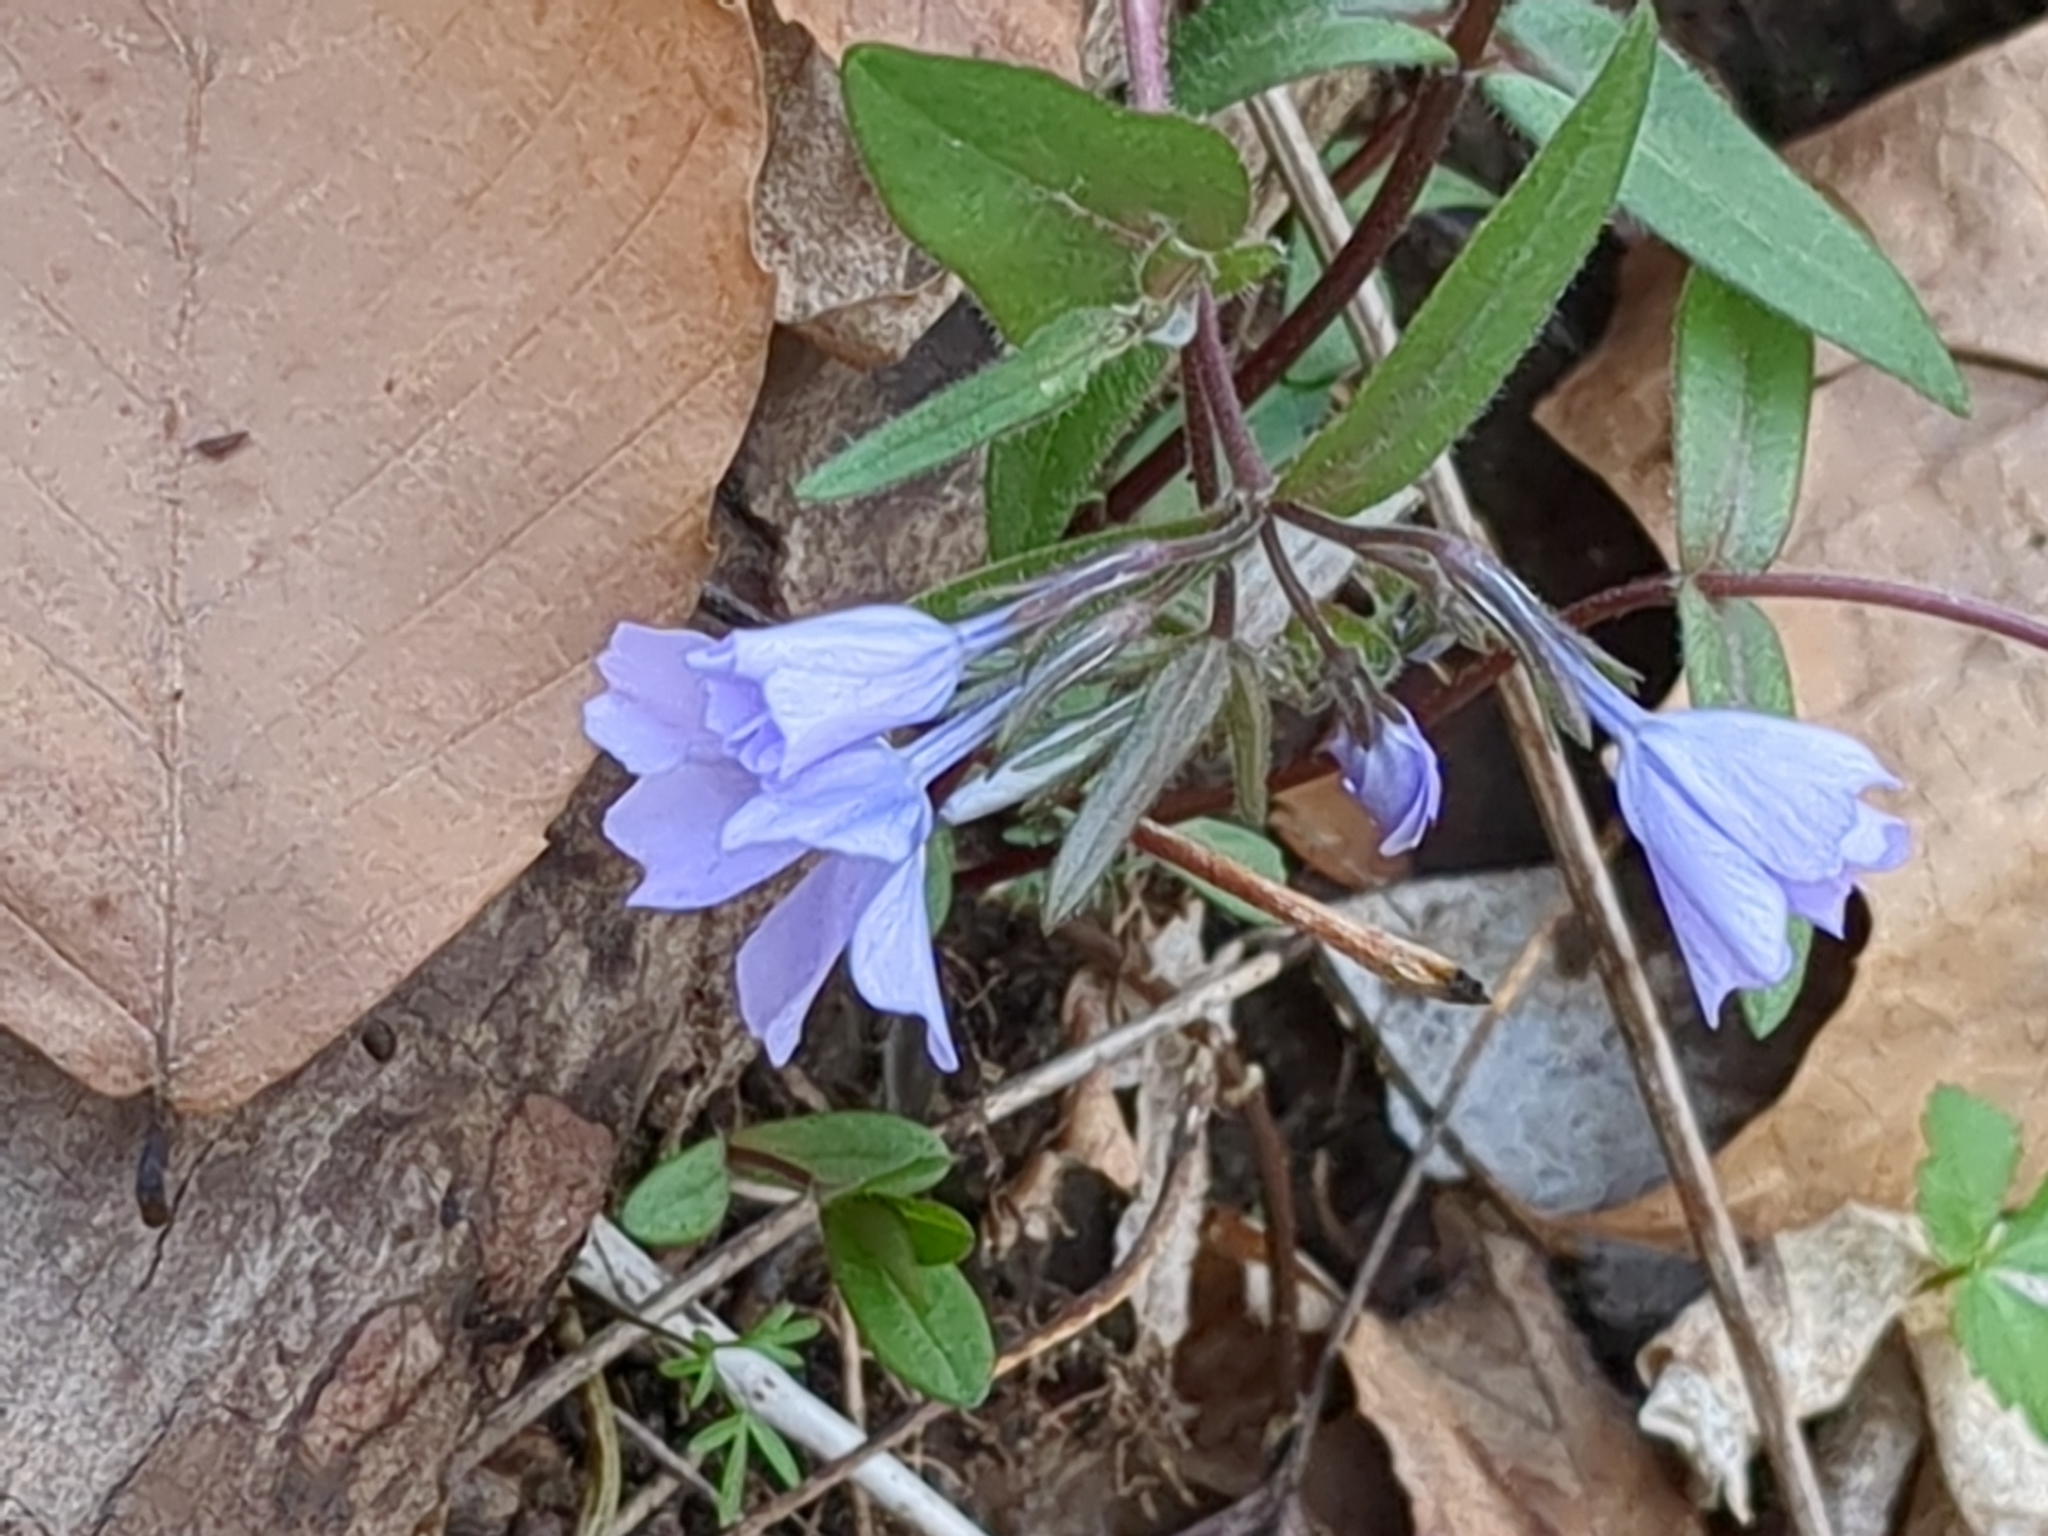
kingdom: Plantae
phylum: Tracheophyta
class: Magnoliopsida
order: Ericales
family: Polemoniaceae
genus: Phlox
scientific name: Phlox divaricata
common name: Blue phlox
